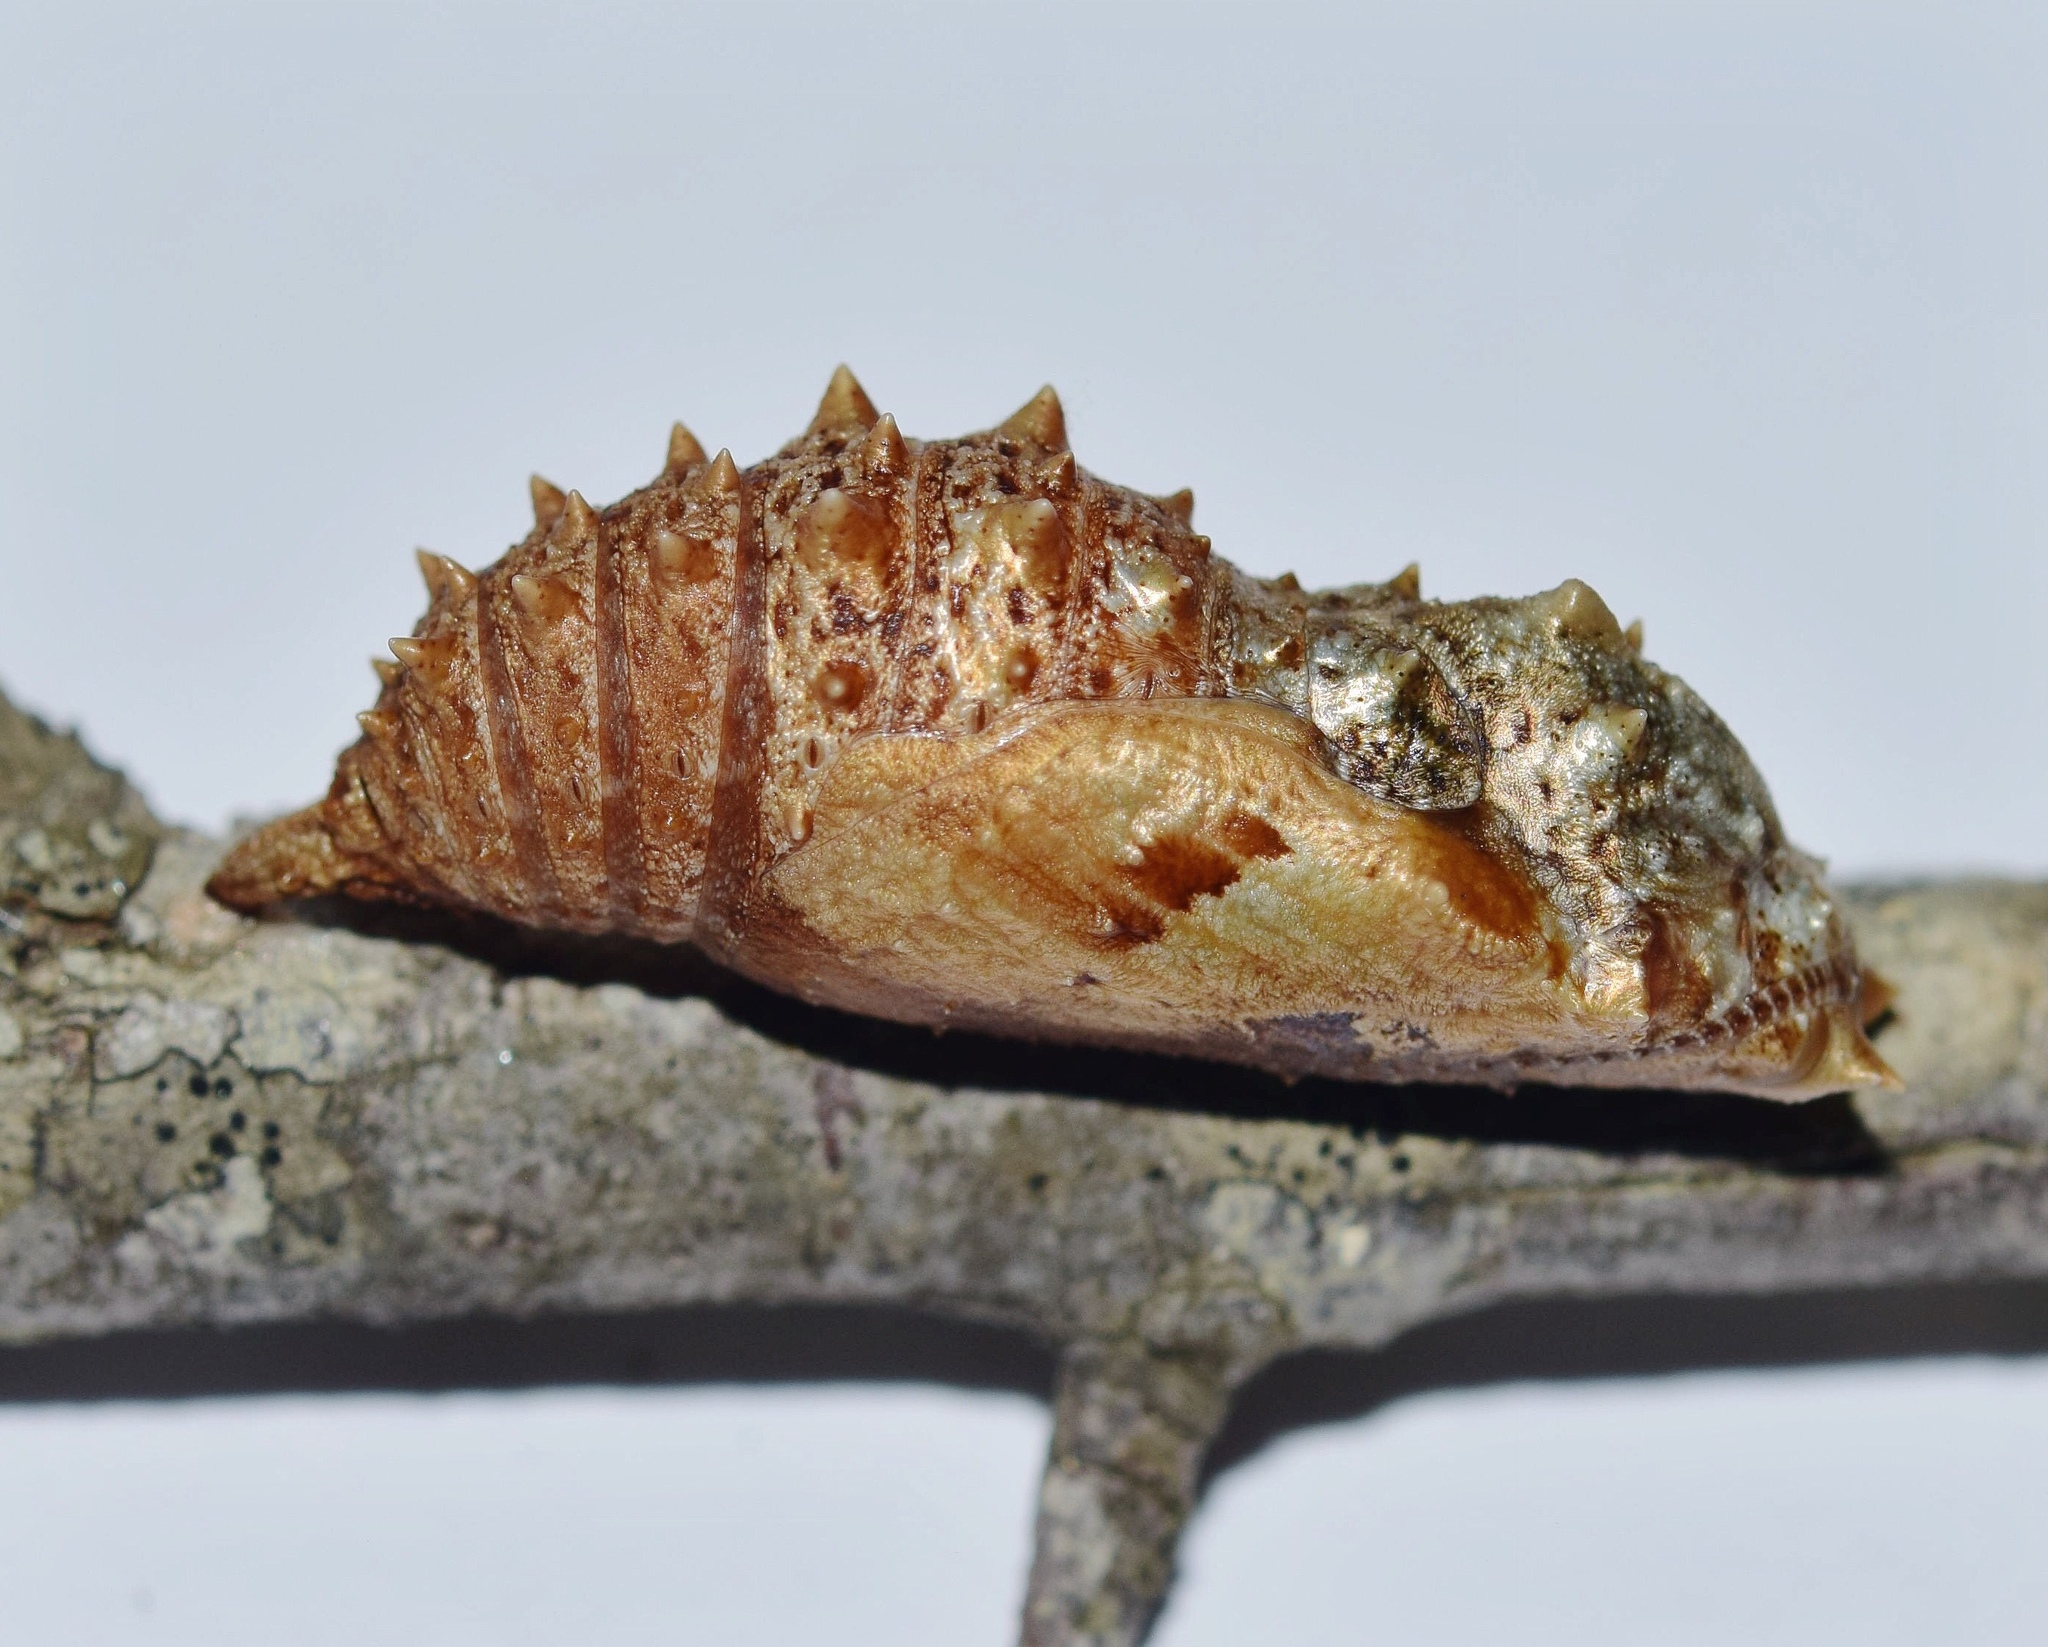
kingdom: Animalia
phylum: Arthropoda
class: Insecta
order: Lepidoptera
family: Nymphalidae
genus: Precis
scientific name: Precis octavia
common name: Gaudy commodore
